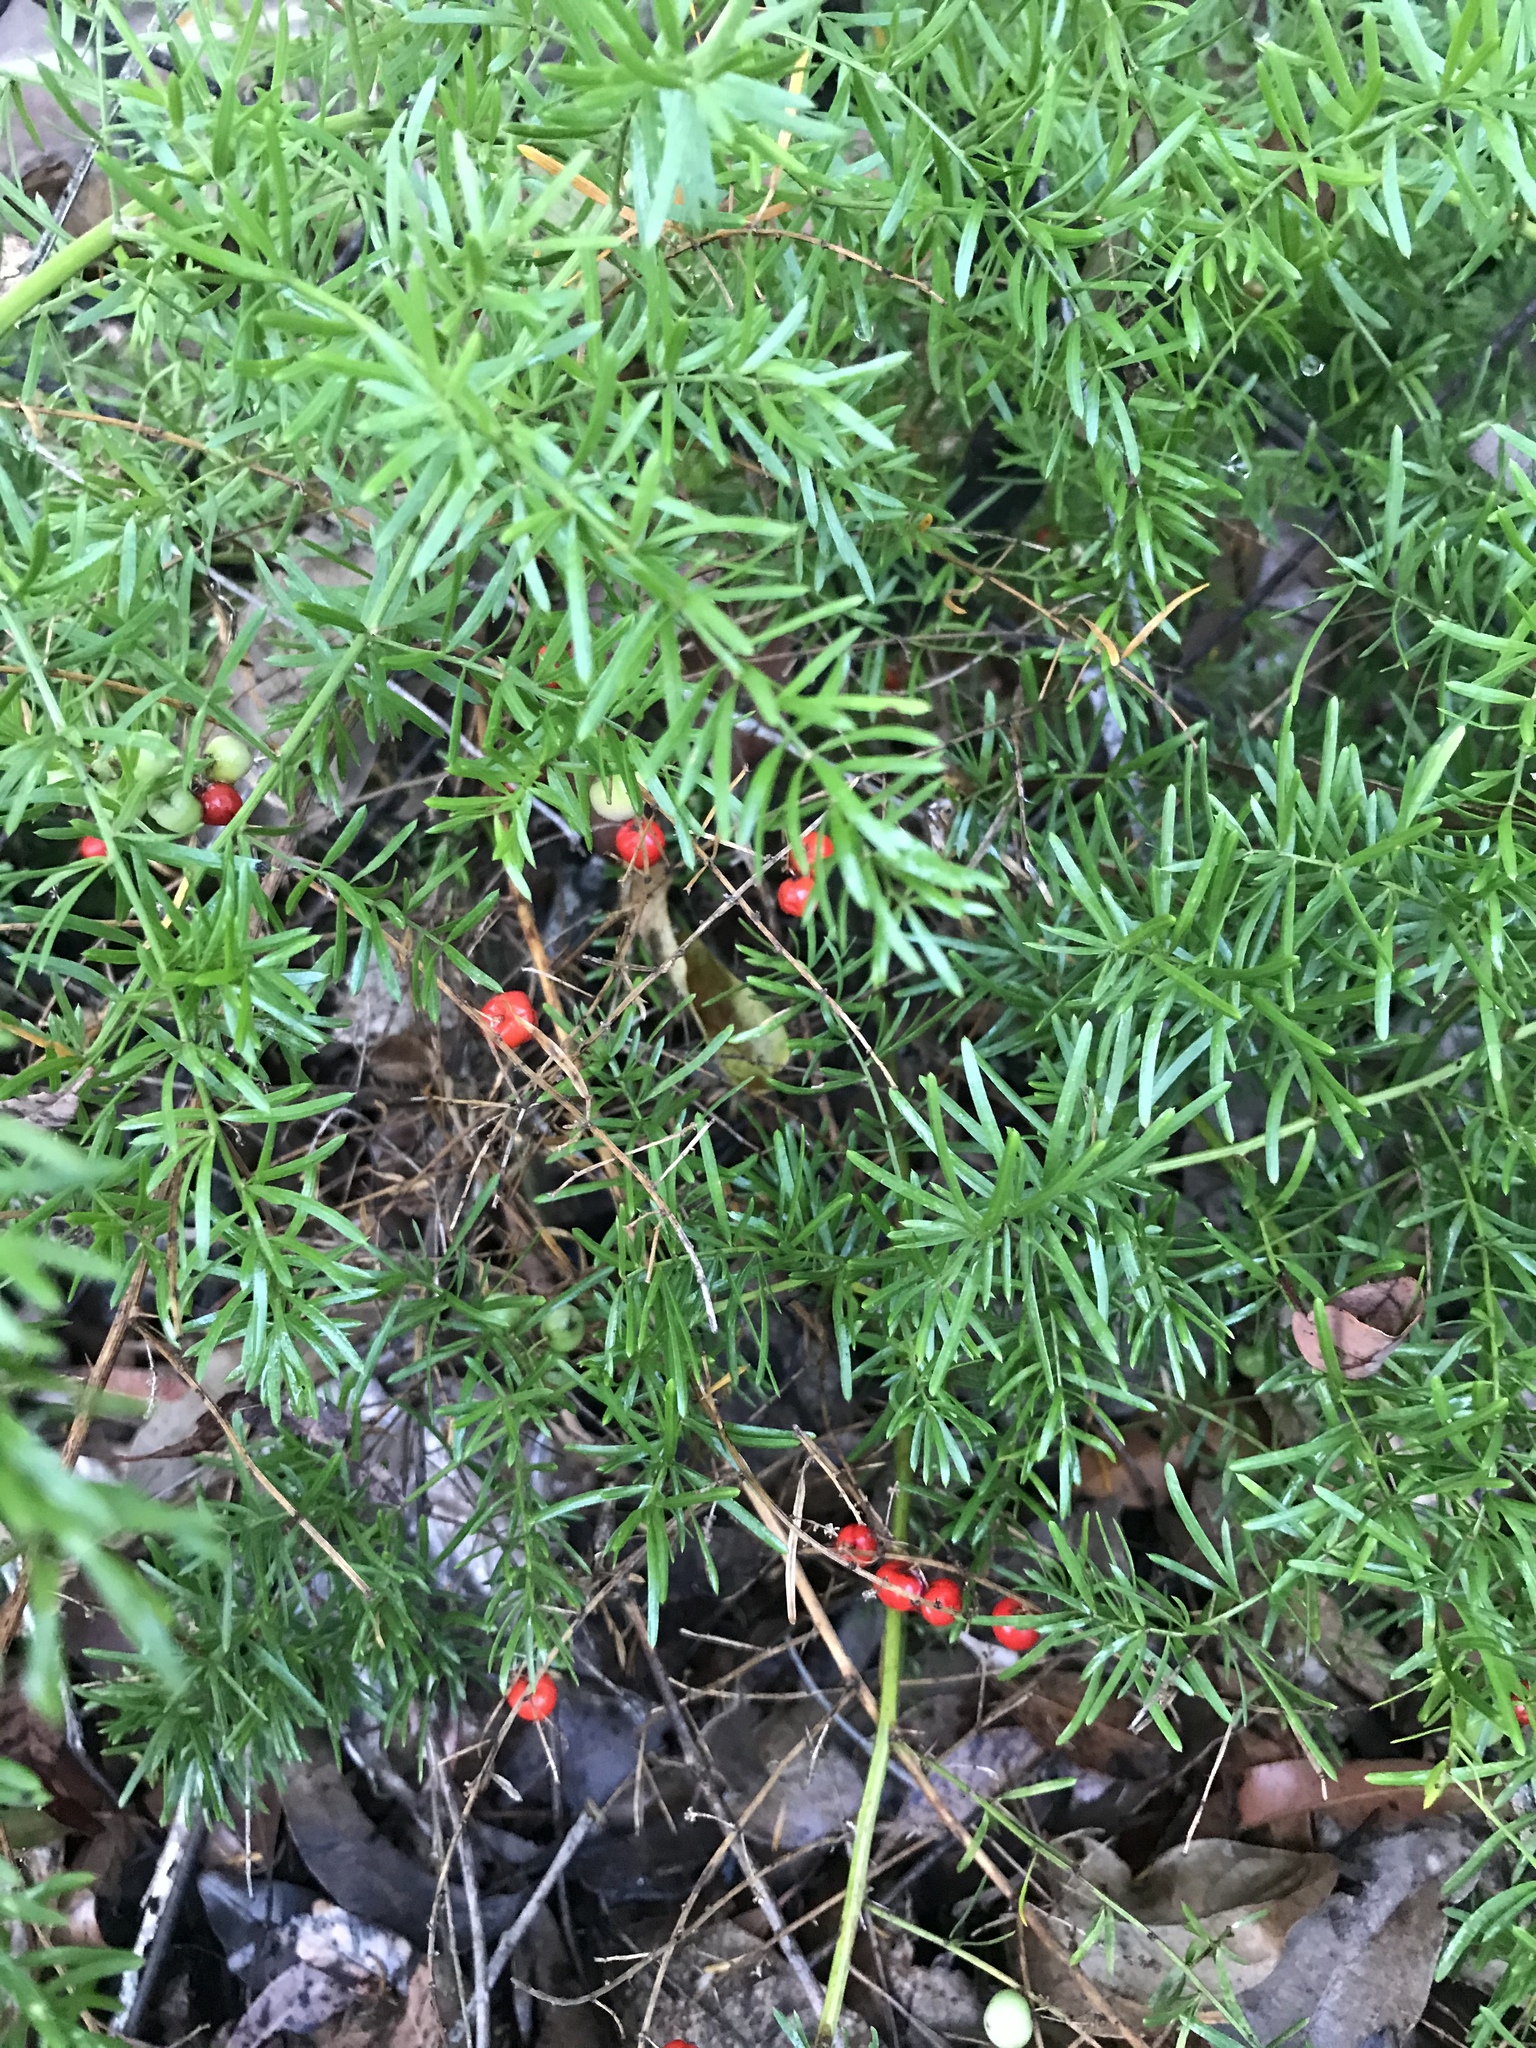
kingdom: Plantae
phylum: Tracheophyta
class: Liliopsida
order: Asparagales
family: Asparagaceae
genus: Asparagus
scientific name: Asparagus aethiopicus
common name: Sprenger's asparagus fern
